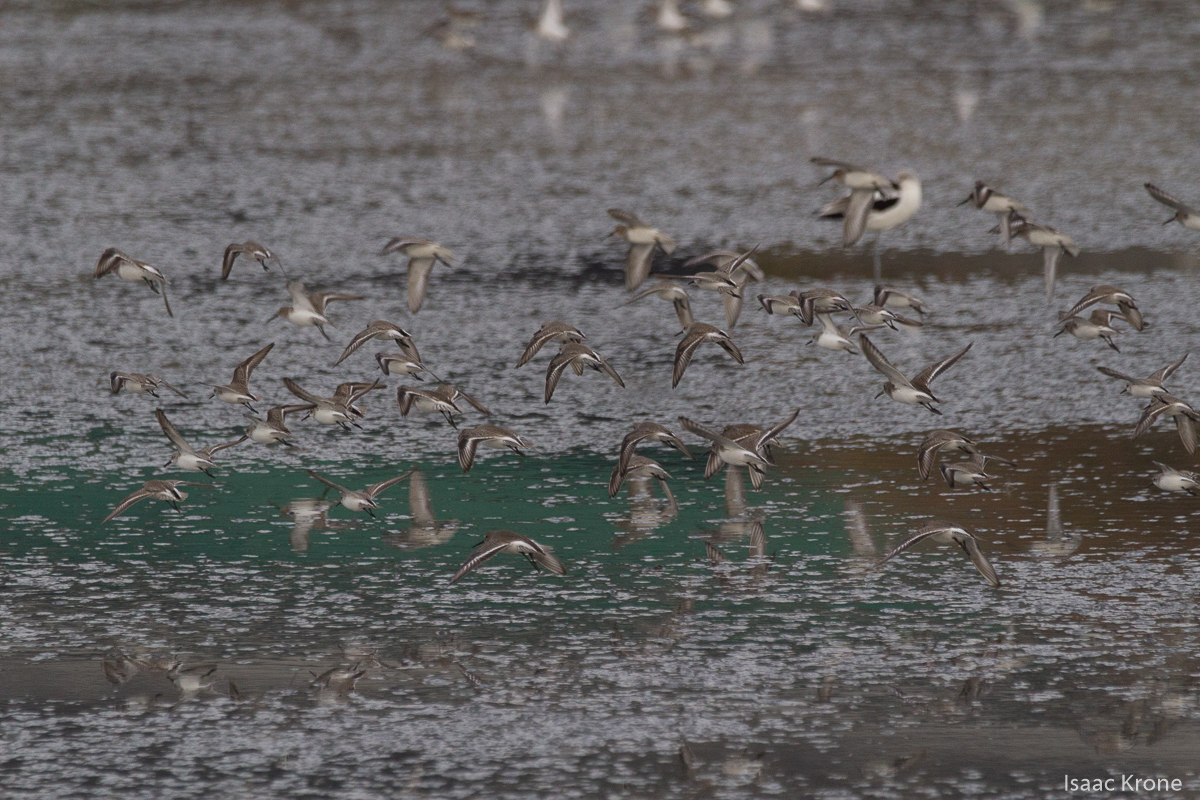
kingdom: Animalia
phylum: Chordata
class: Aves
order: Charadriiformes
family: Scolopacidae
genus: Calidris
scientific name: Calidris alpina
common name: Dunlin
